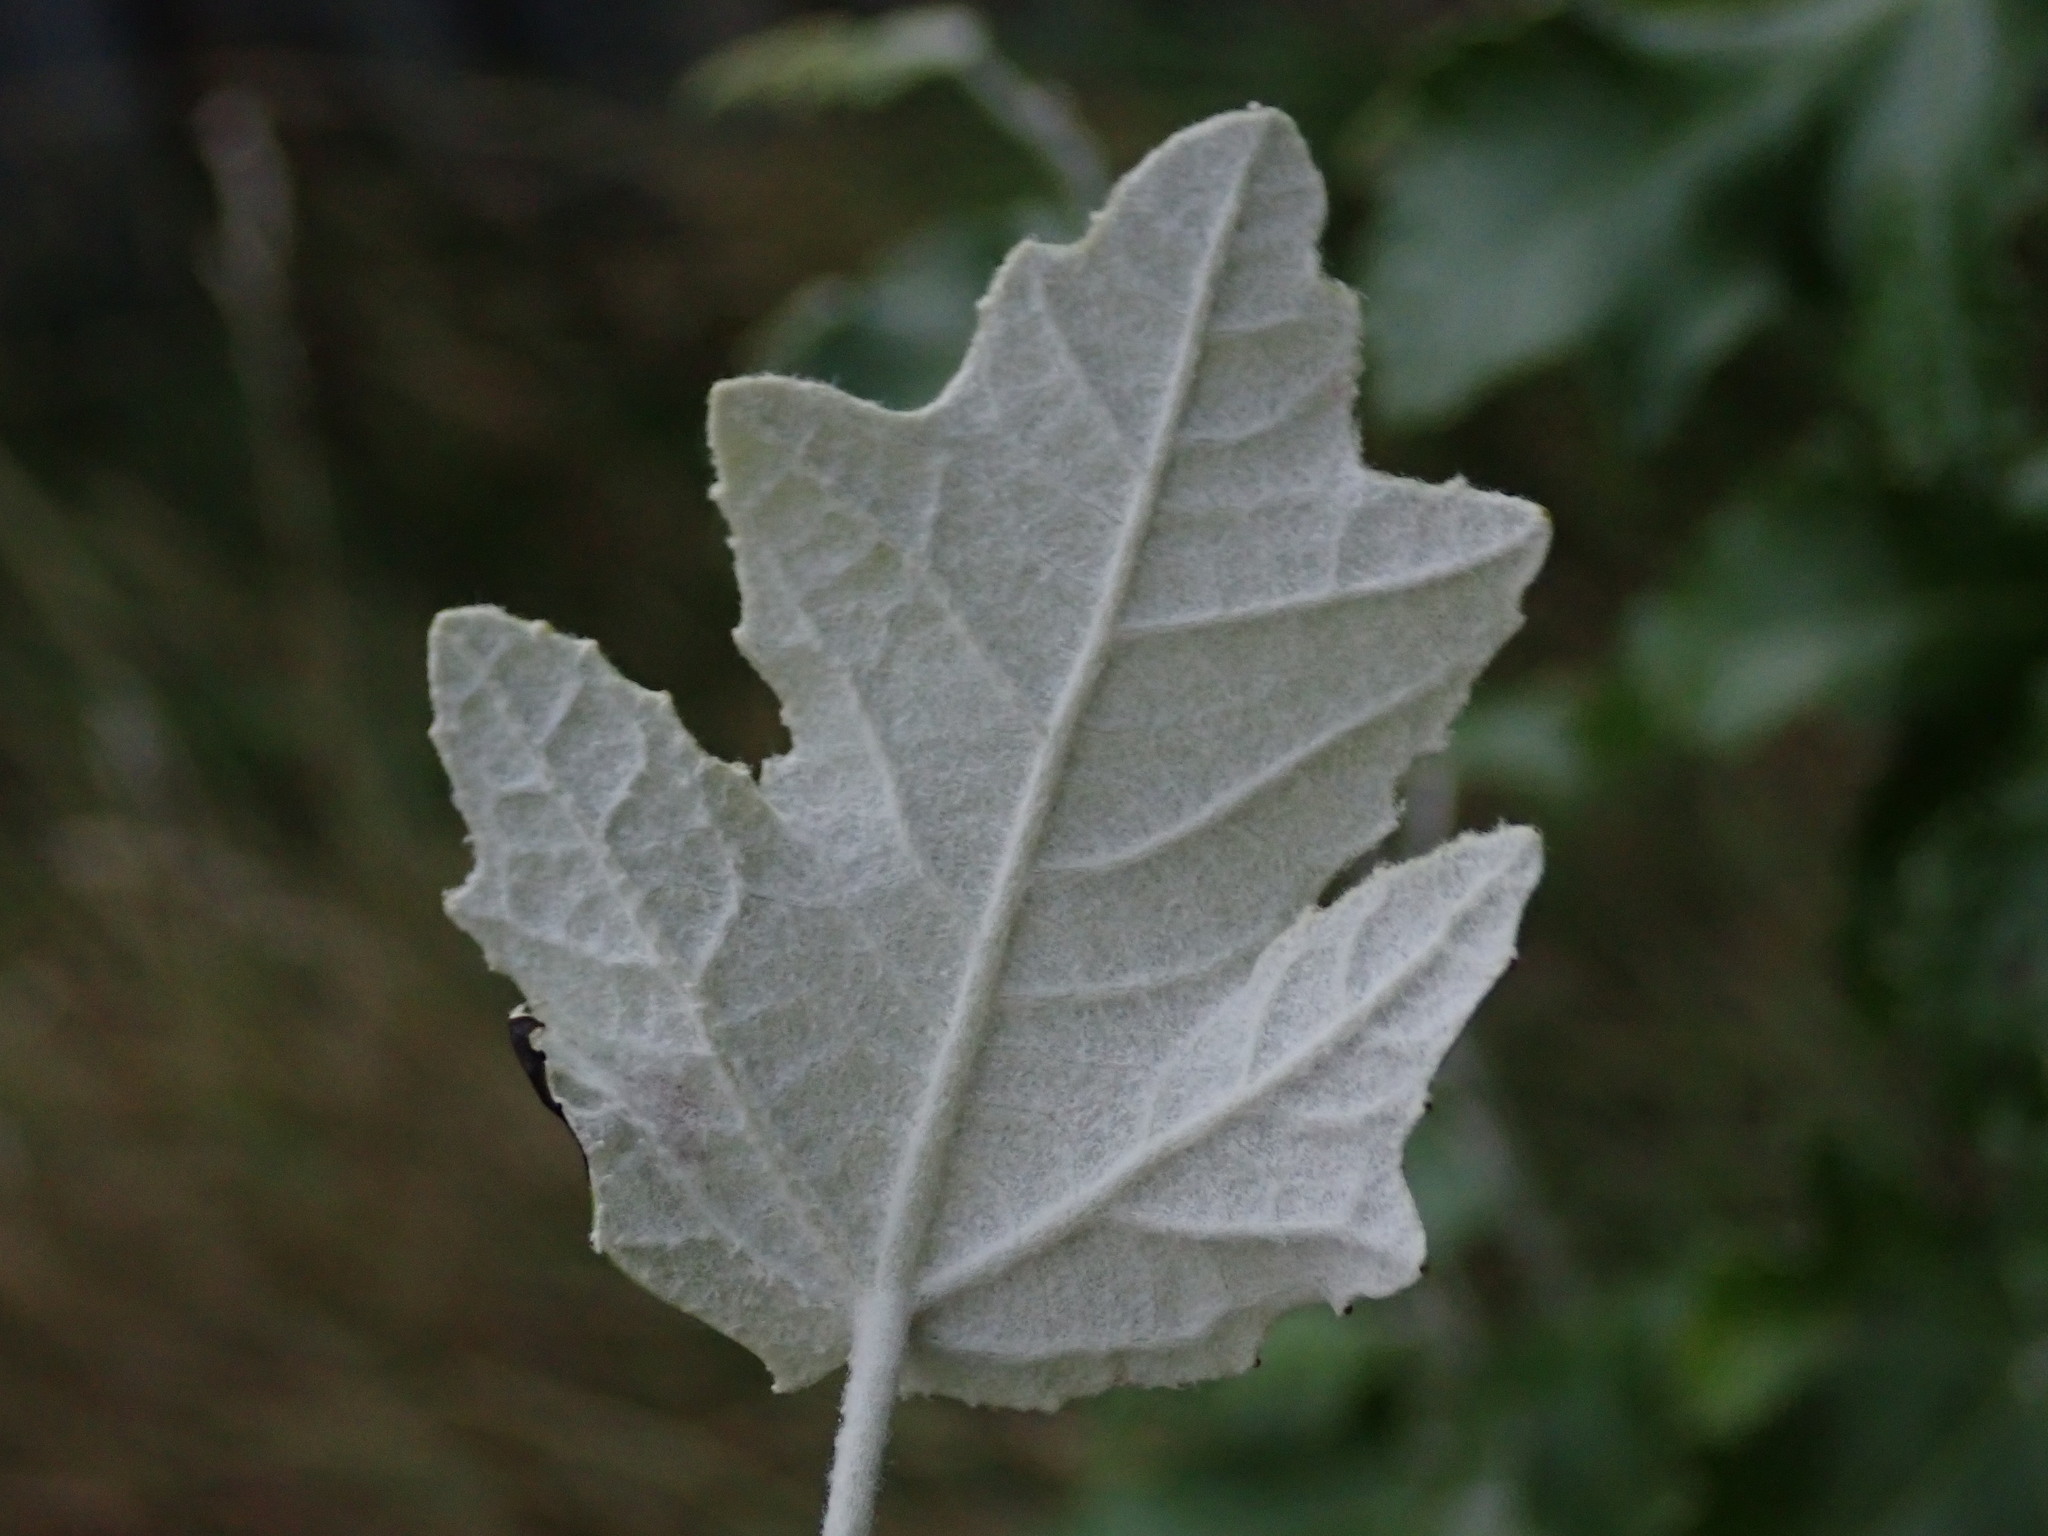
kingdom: Plantae
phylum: Tracheophyta
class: Magnoliopsida
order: Malpighiales
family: Salicaceae
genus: Populus
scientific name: Populus alba
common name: White poplar
